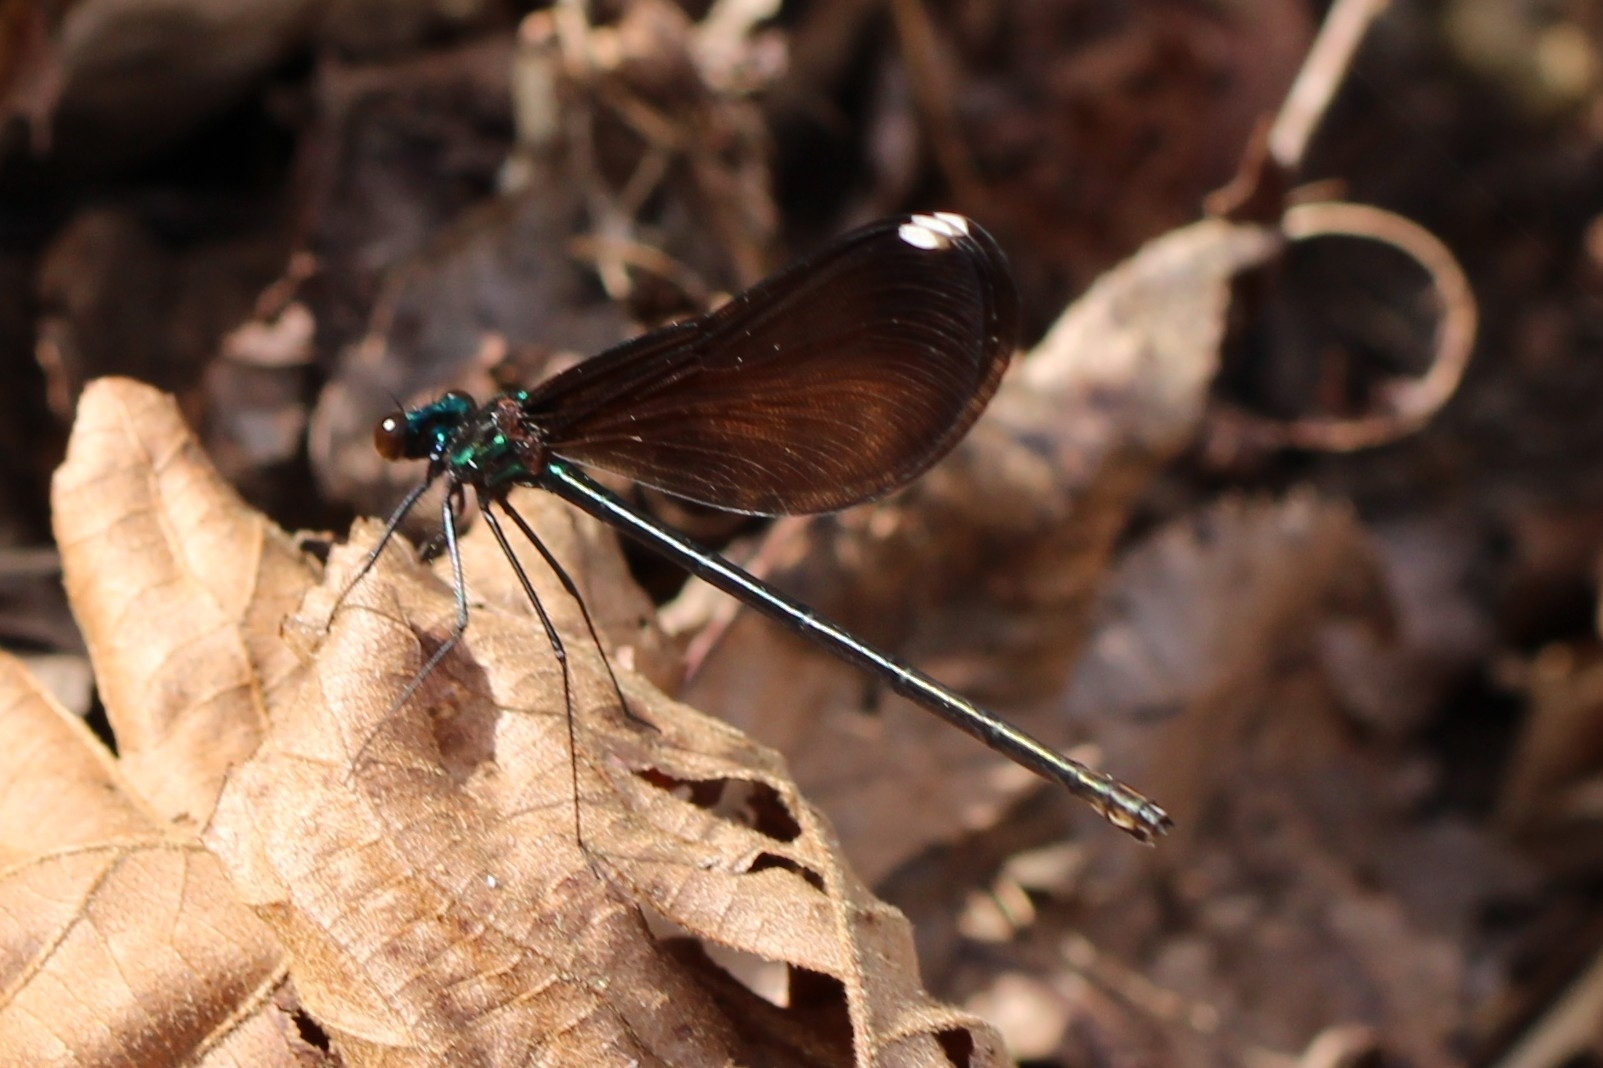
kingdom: Animalia
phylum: Arthropoda
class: Insecta
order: Odonata
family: Calopterygidae
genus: Calopteryx
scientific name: Calopteryx maculata
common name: Ebony jewelwing
